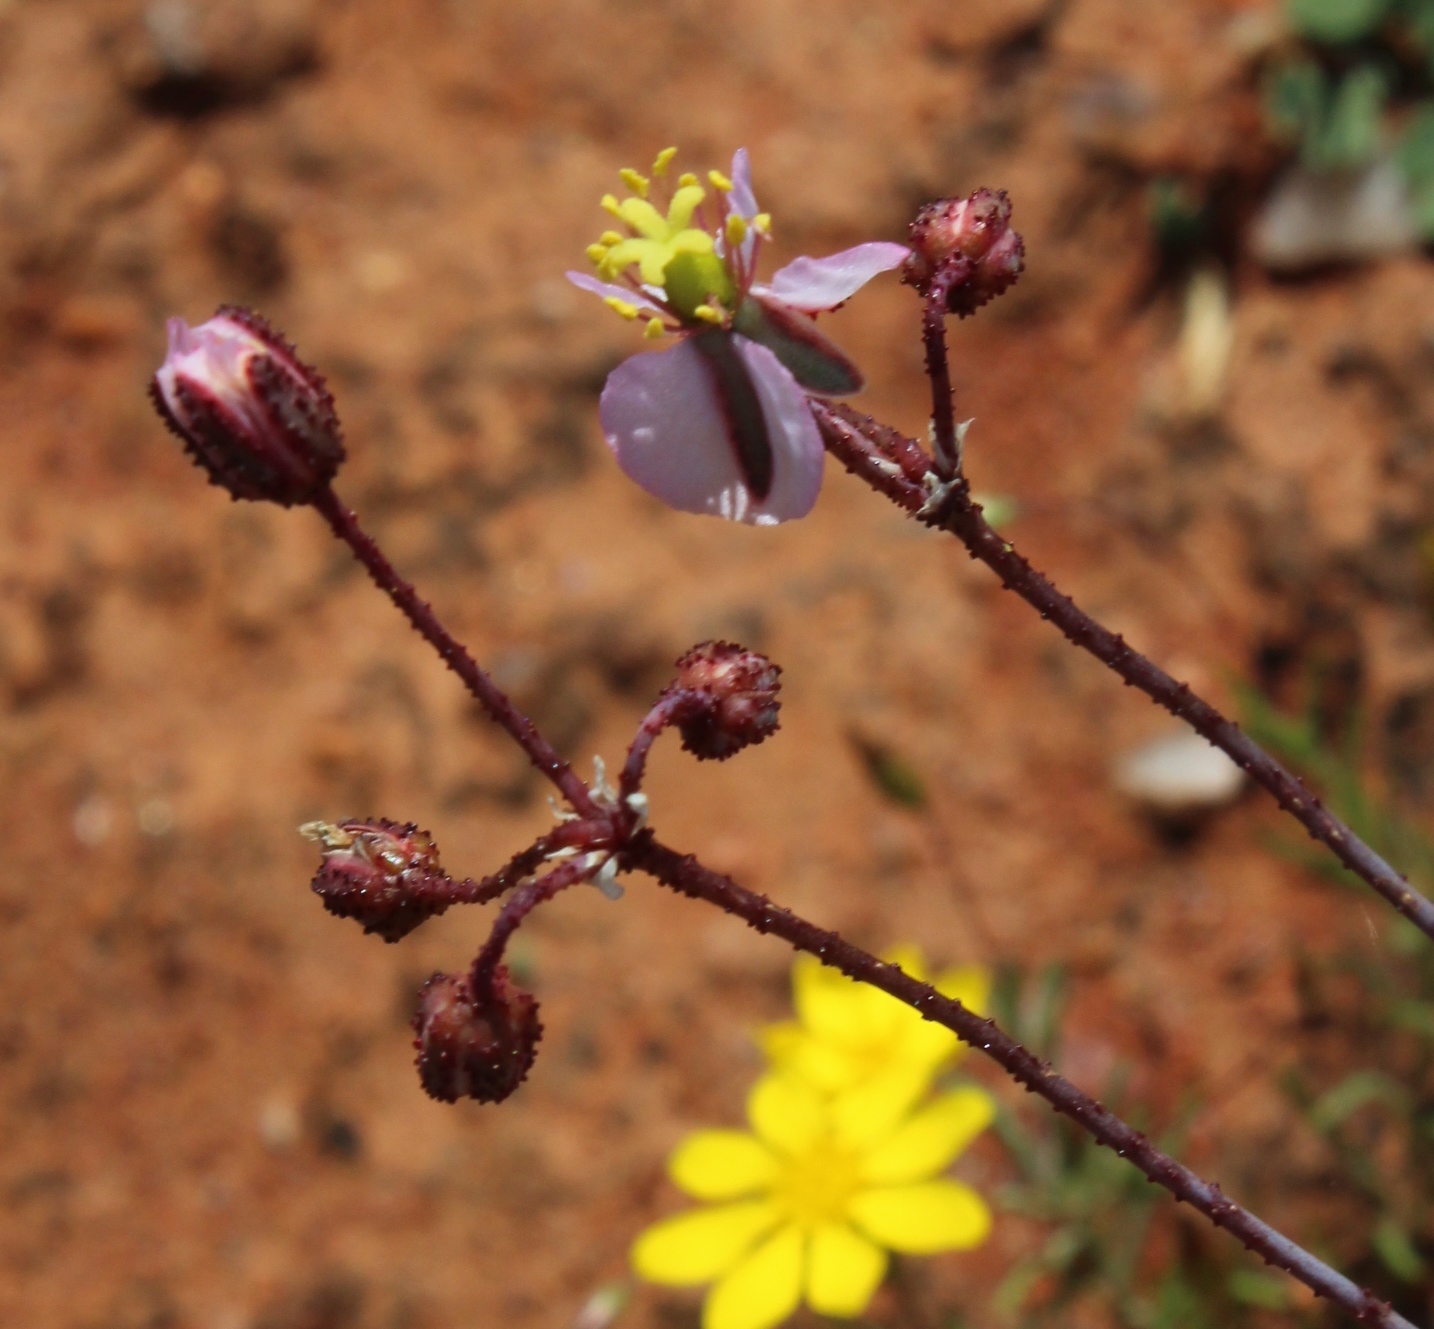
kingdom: Plantae
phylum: Tracheophyta
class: Magnoliopsida
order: Caryophyllales
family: Kewaceae
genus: Kewa
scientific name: Kewa salsoloides
